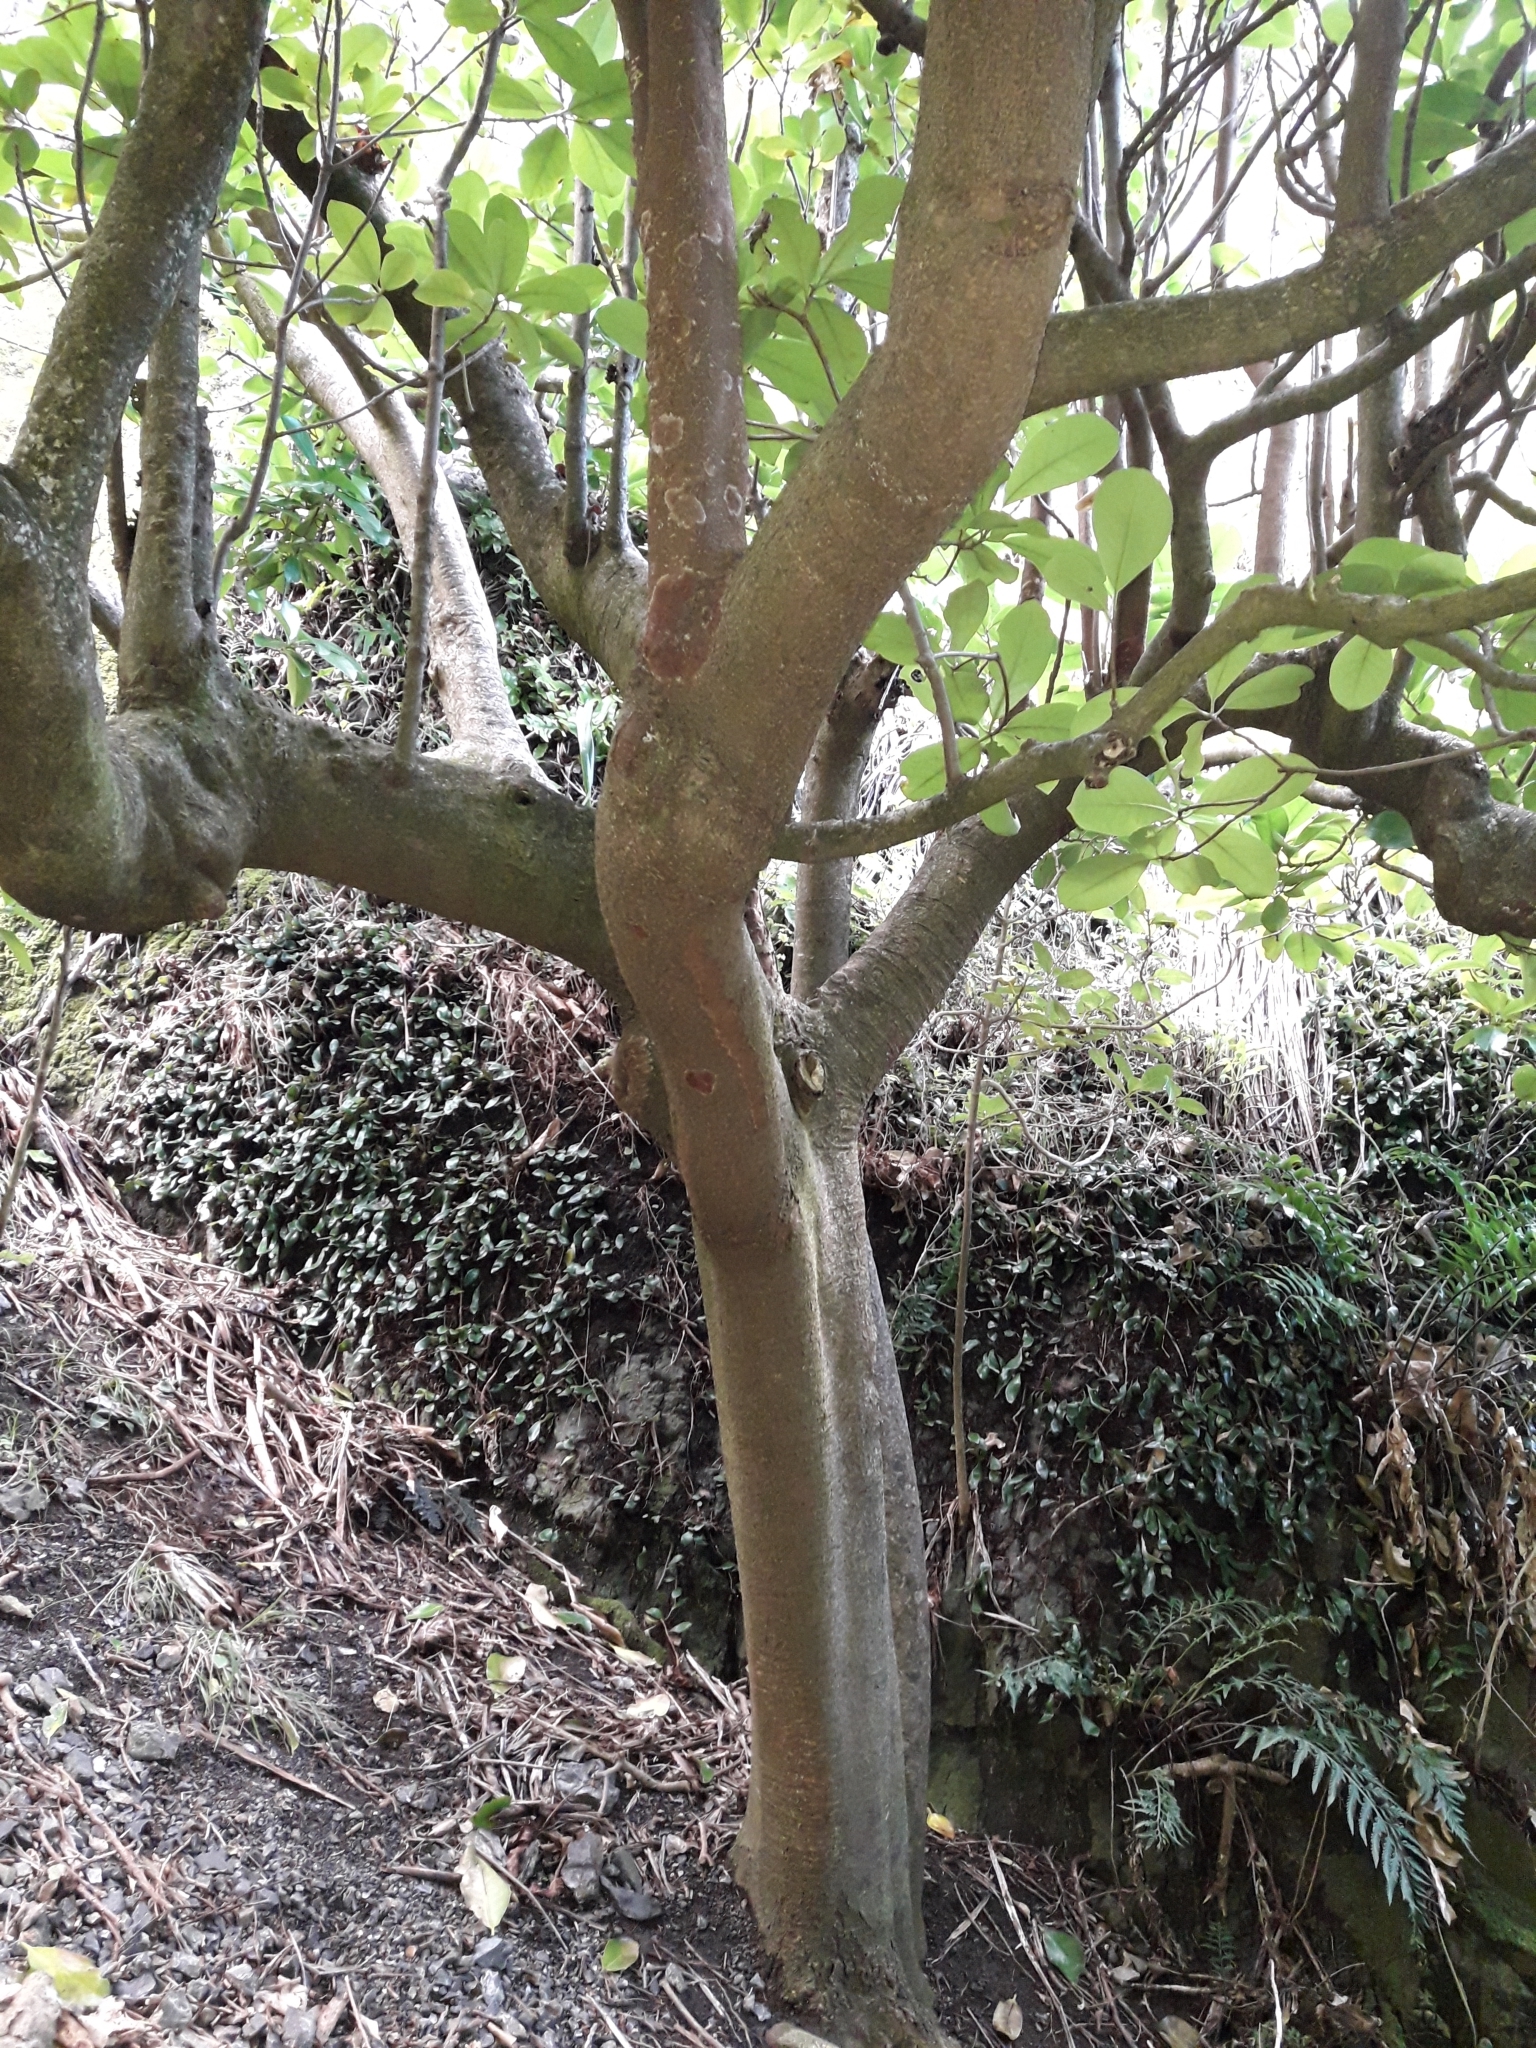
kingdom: Plantae
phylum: Tracheophyta
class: Magnoliopsida
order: Cucurbitales
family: Corynocarpaceae
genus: Corynocarpus
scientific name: Corynocarpus laevigatus
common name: New zealand laurel
